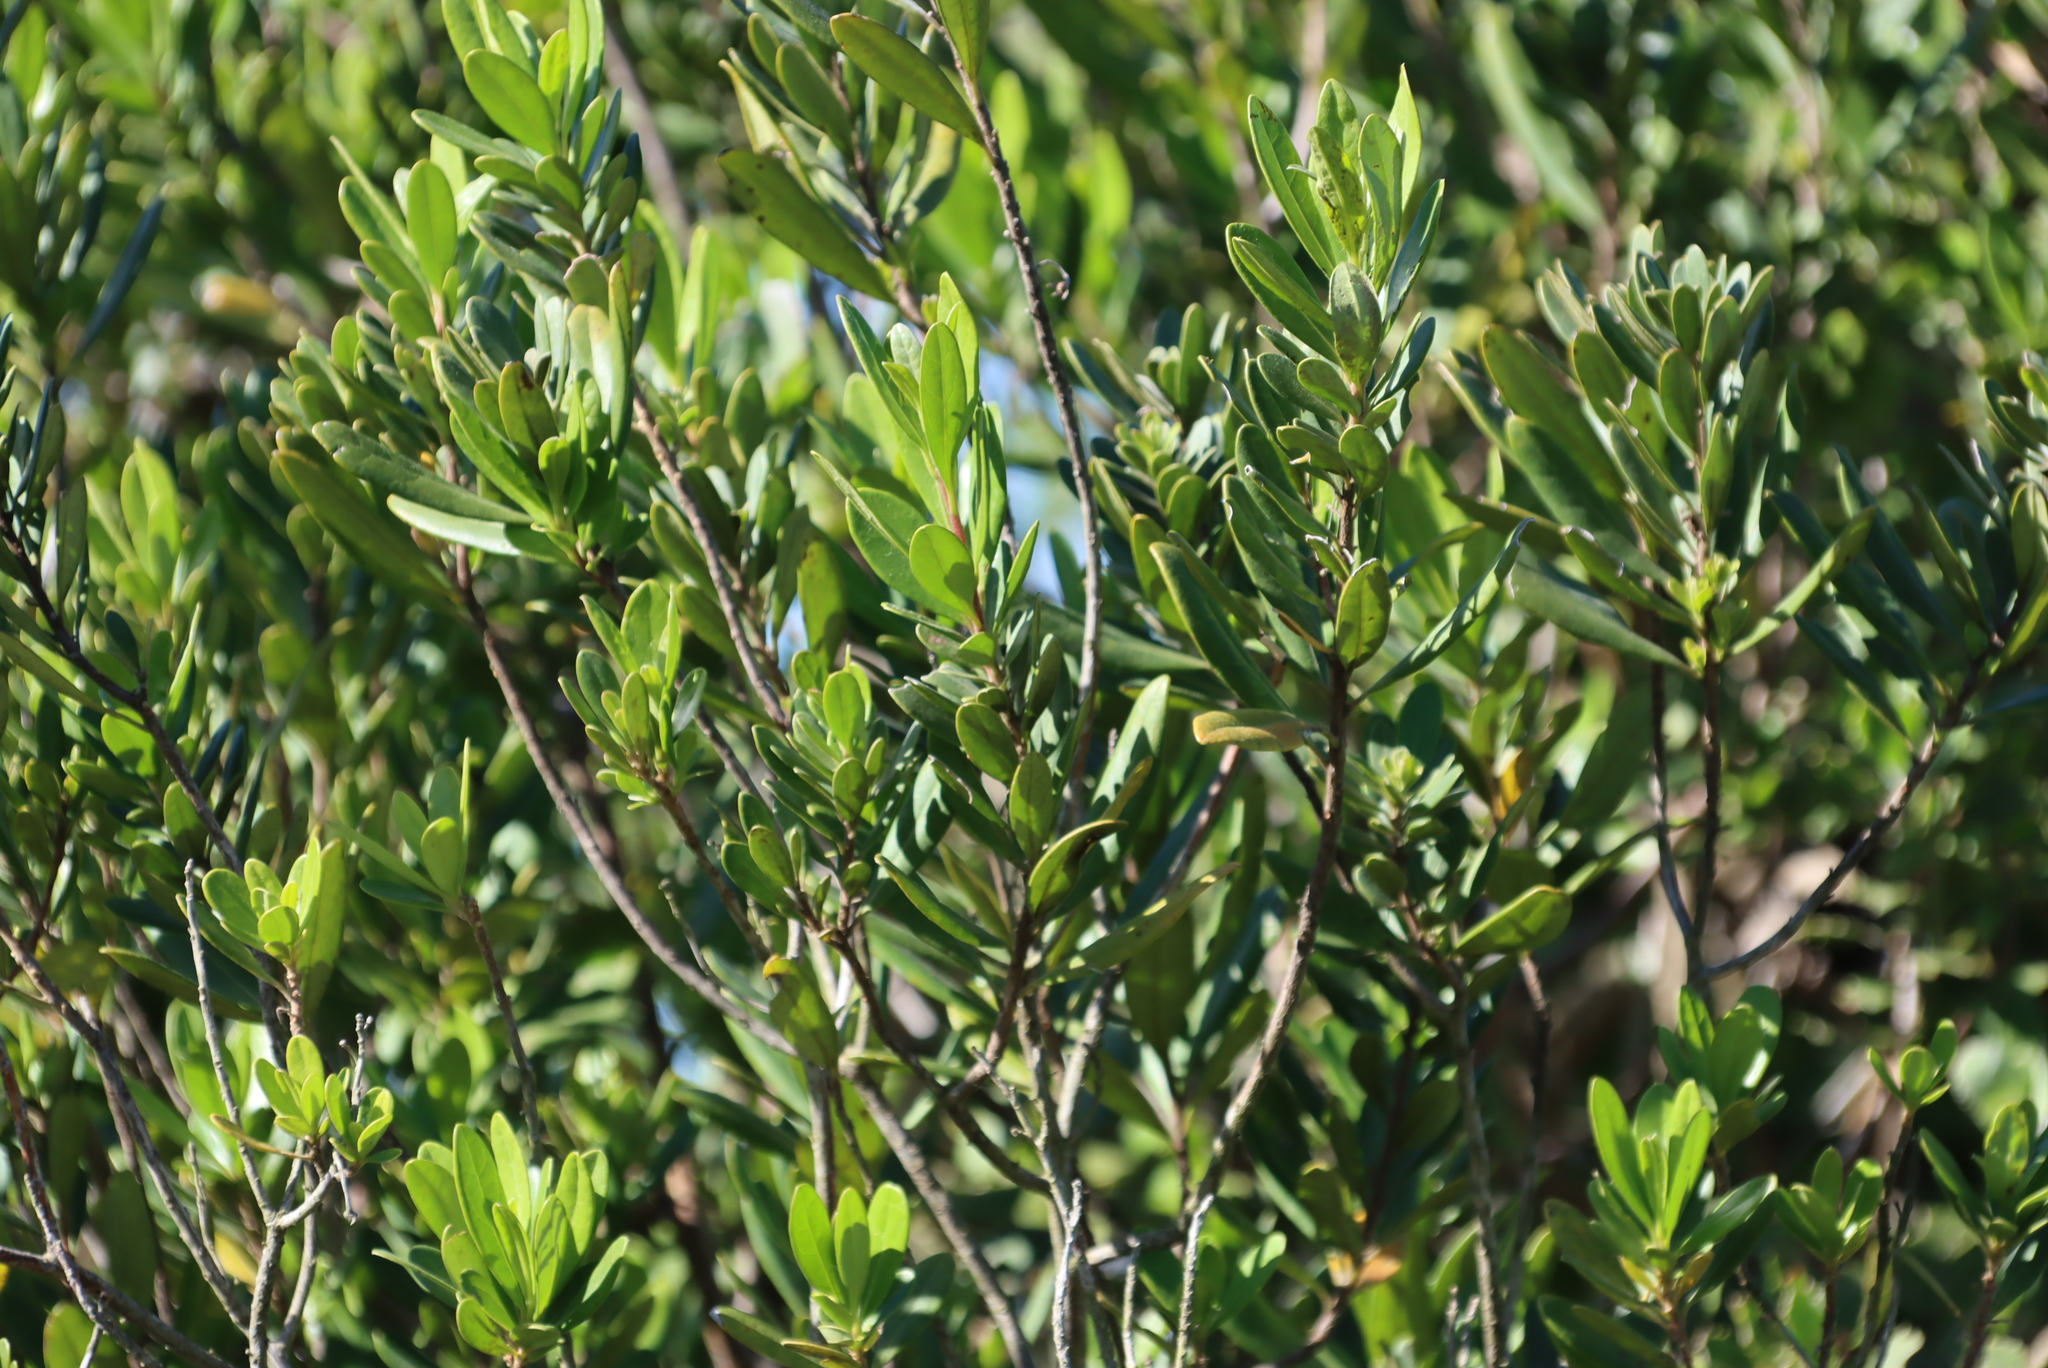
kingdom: Plantae
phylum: Tracheophyta
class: Magnoliopsida
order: Ericales
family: Ebenaceae
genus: Diospyros
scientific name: Diospyros dichrophylla
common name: Common star-apple
